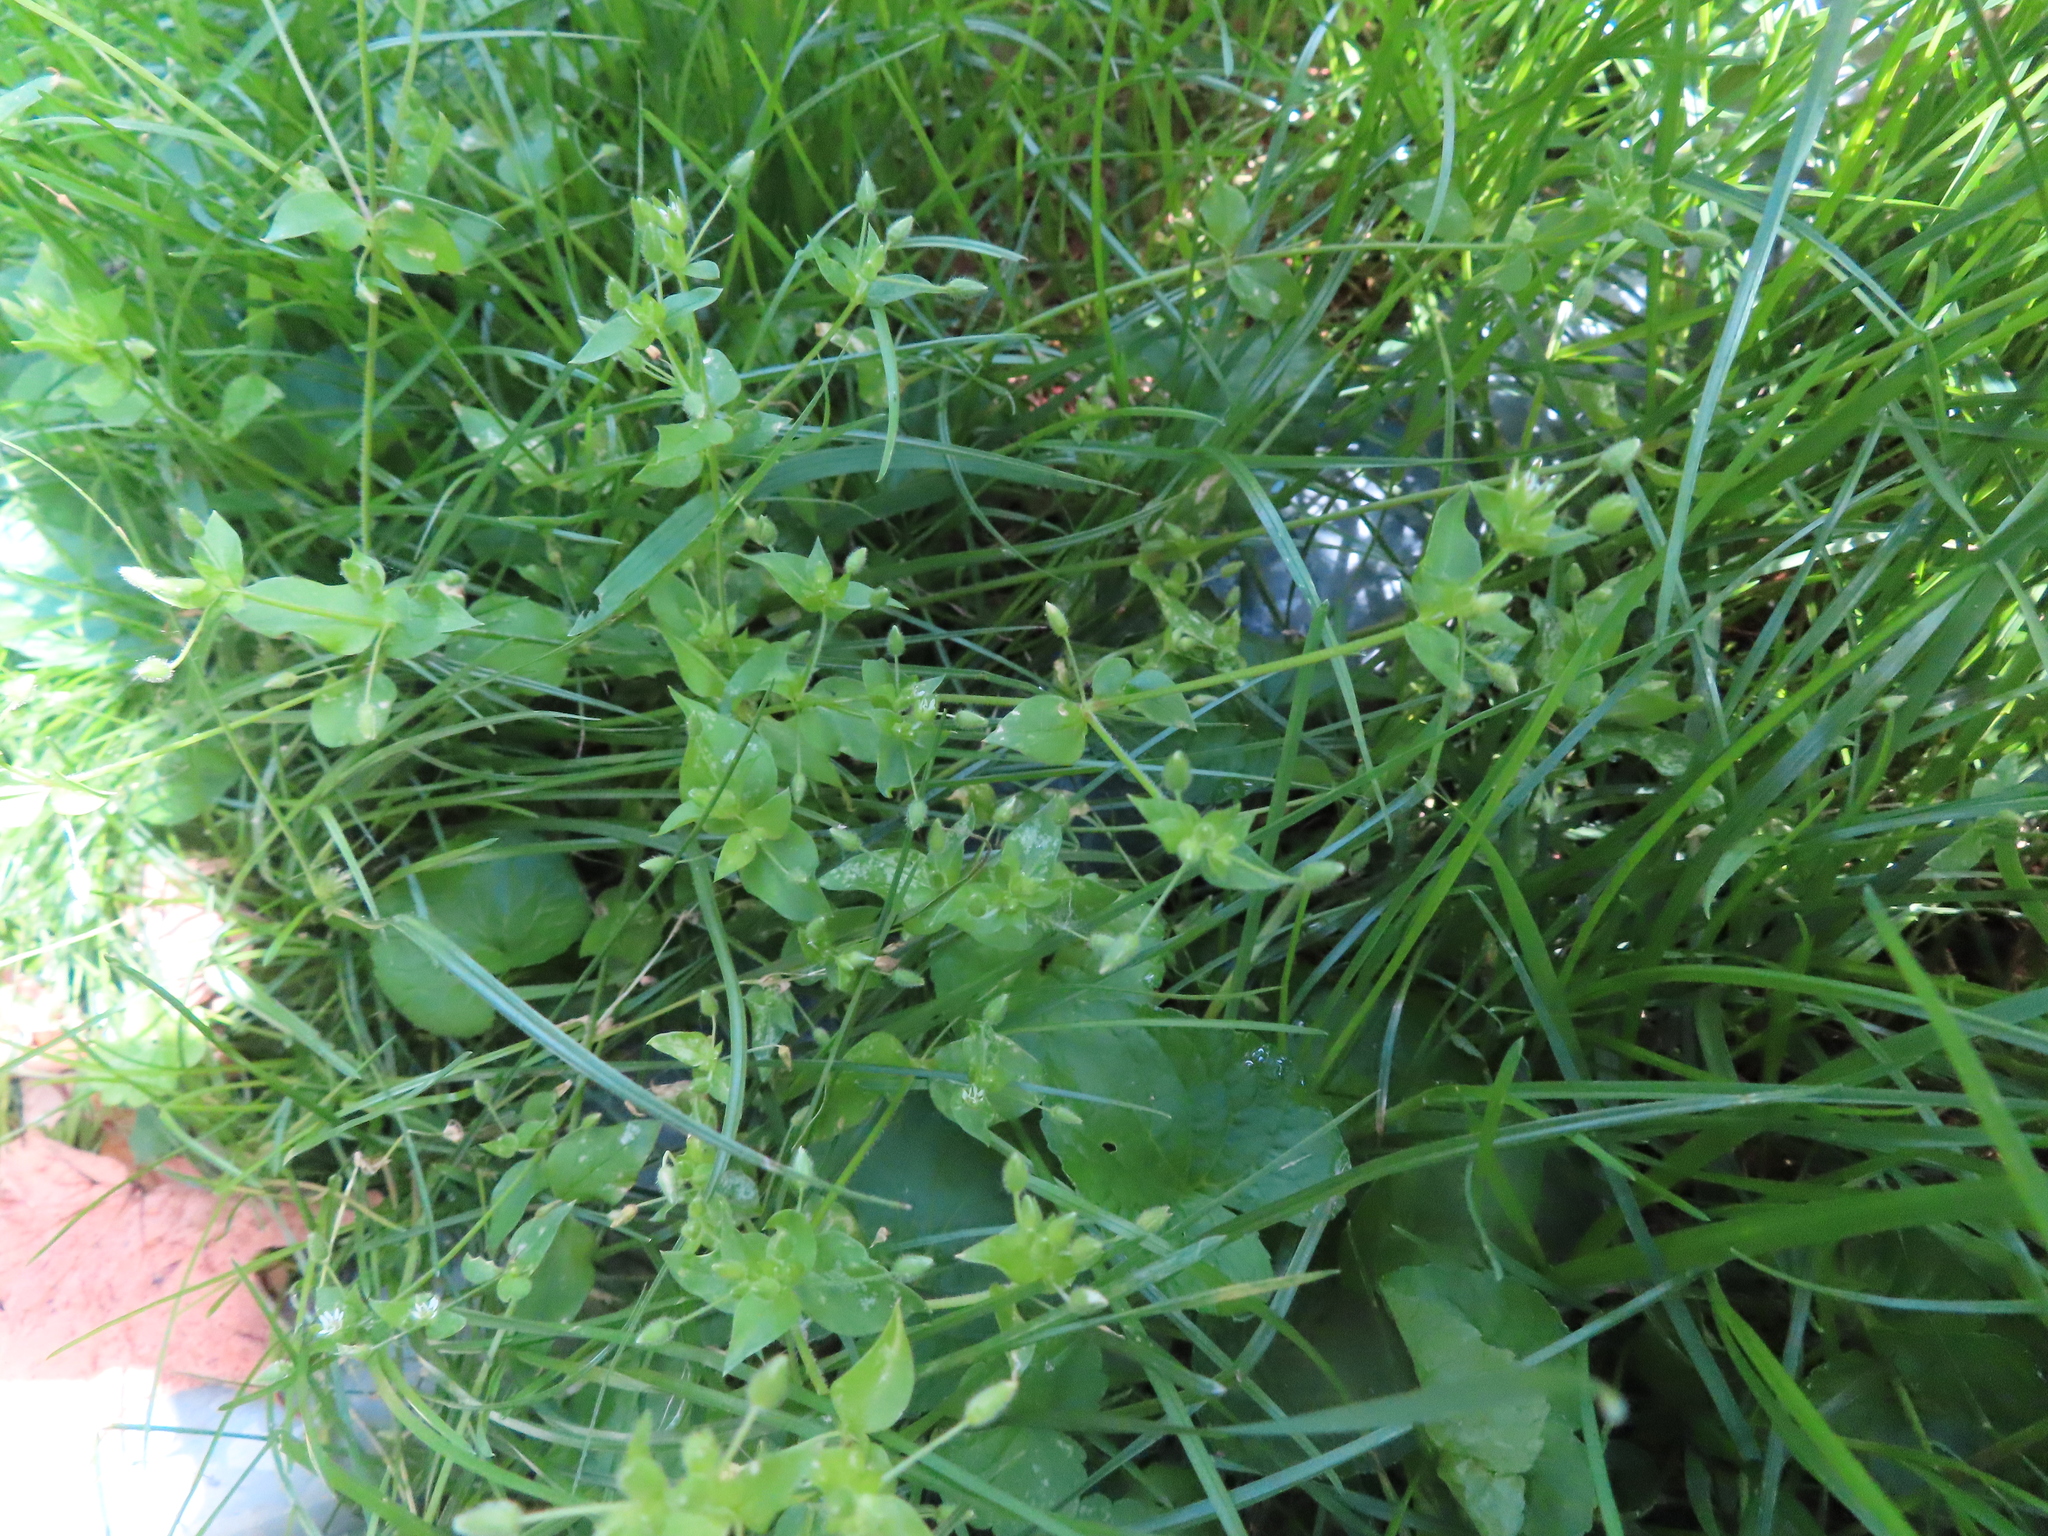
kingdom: Plantae
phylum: Tracheophyta
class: Magnoliopsida
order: Caryophyllales
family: Caryophyllaceae
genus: Stellaria
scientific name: Stellaria media
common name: Common chickweed
